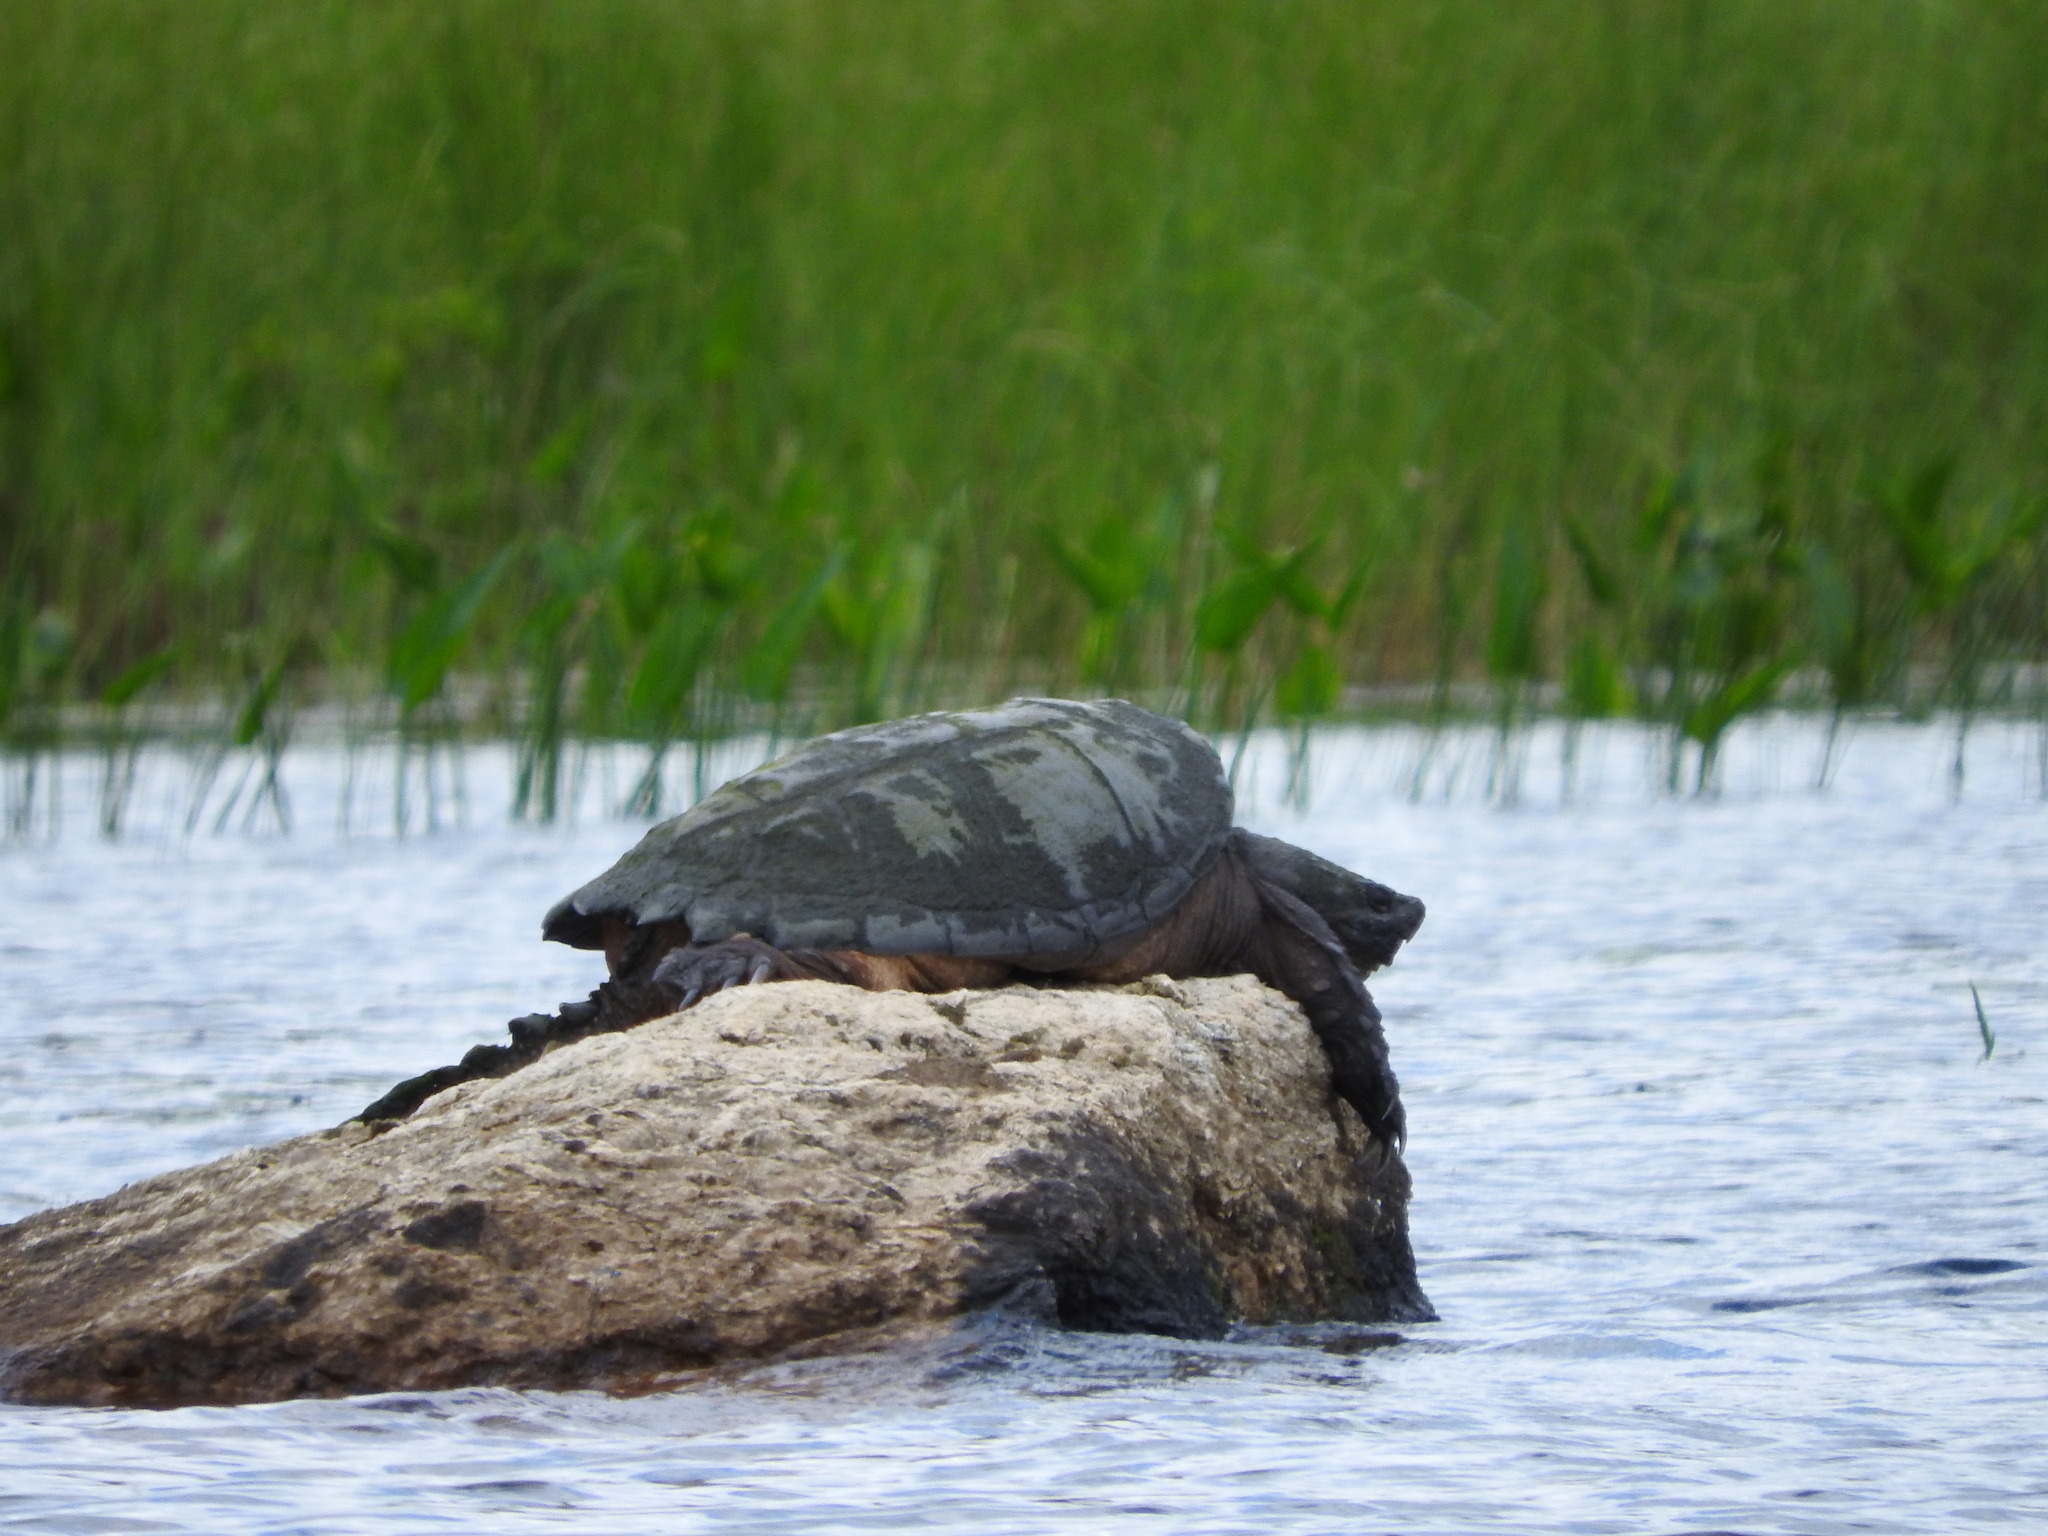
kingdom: Animalia
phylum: Chordata
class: Testudines
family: Chelydridae
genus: Chelydra
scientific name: Chelydra serpentina
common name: Common snapping turtle
